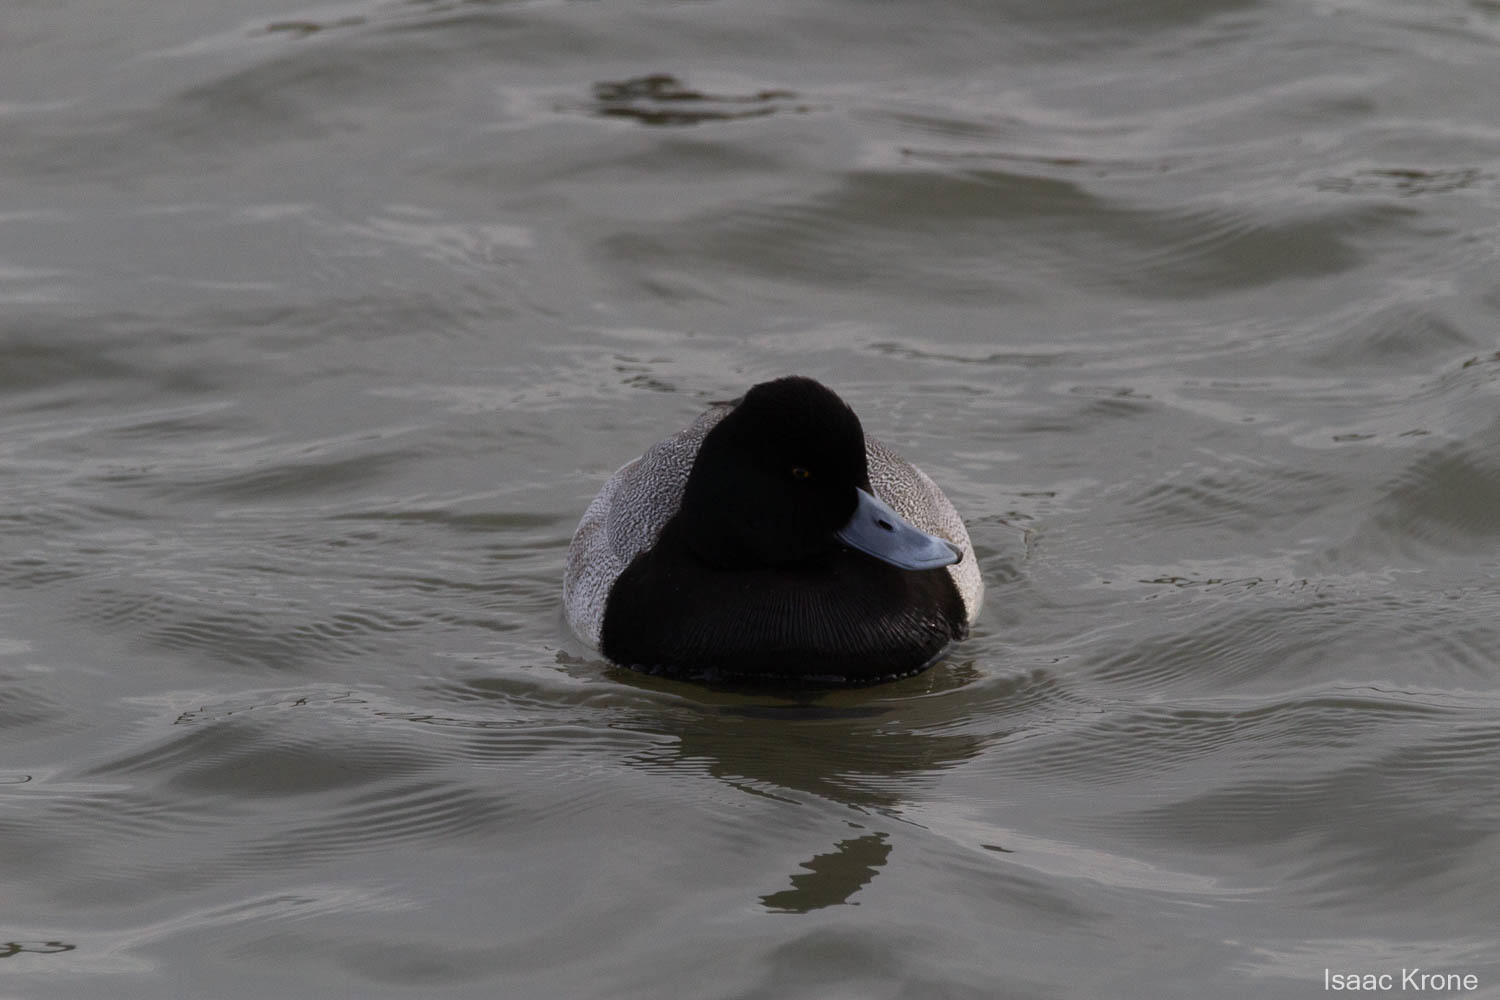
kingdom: Animalia
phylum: Chordata
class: Aves
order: Anseriformes
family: Anatidae
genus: Aythya
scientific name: Aythya affinis
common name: Lesser scaup
